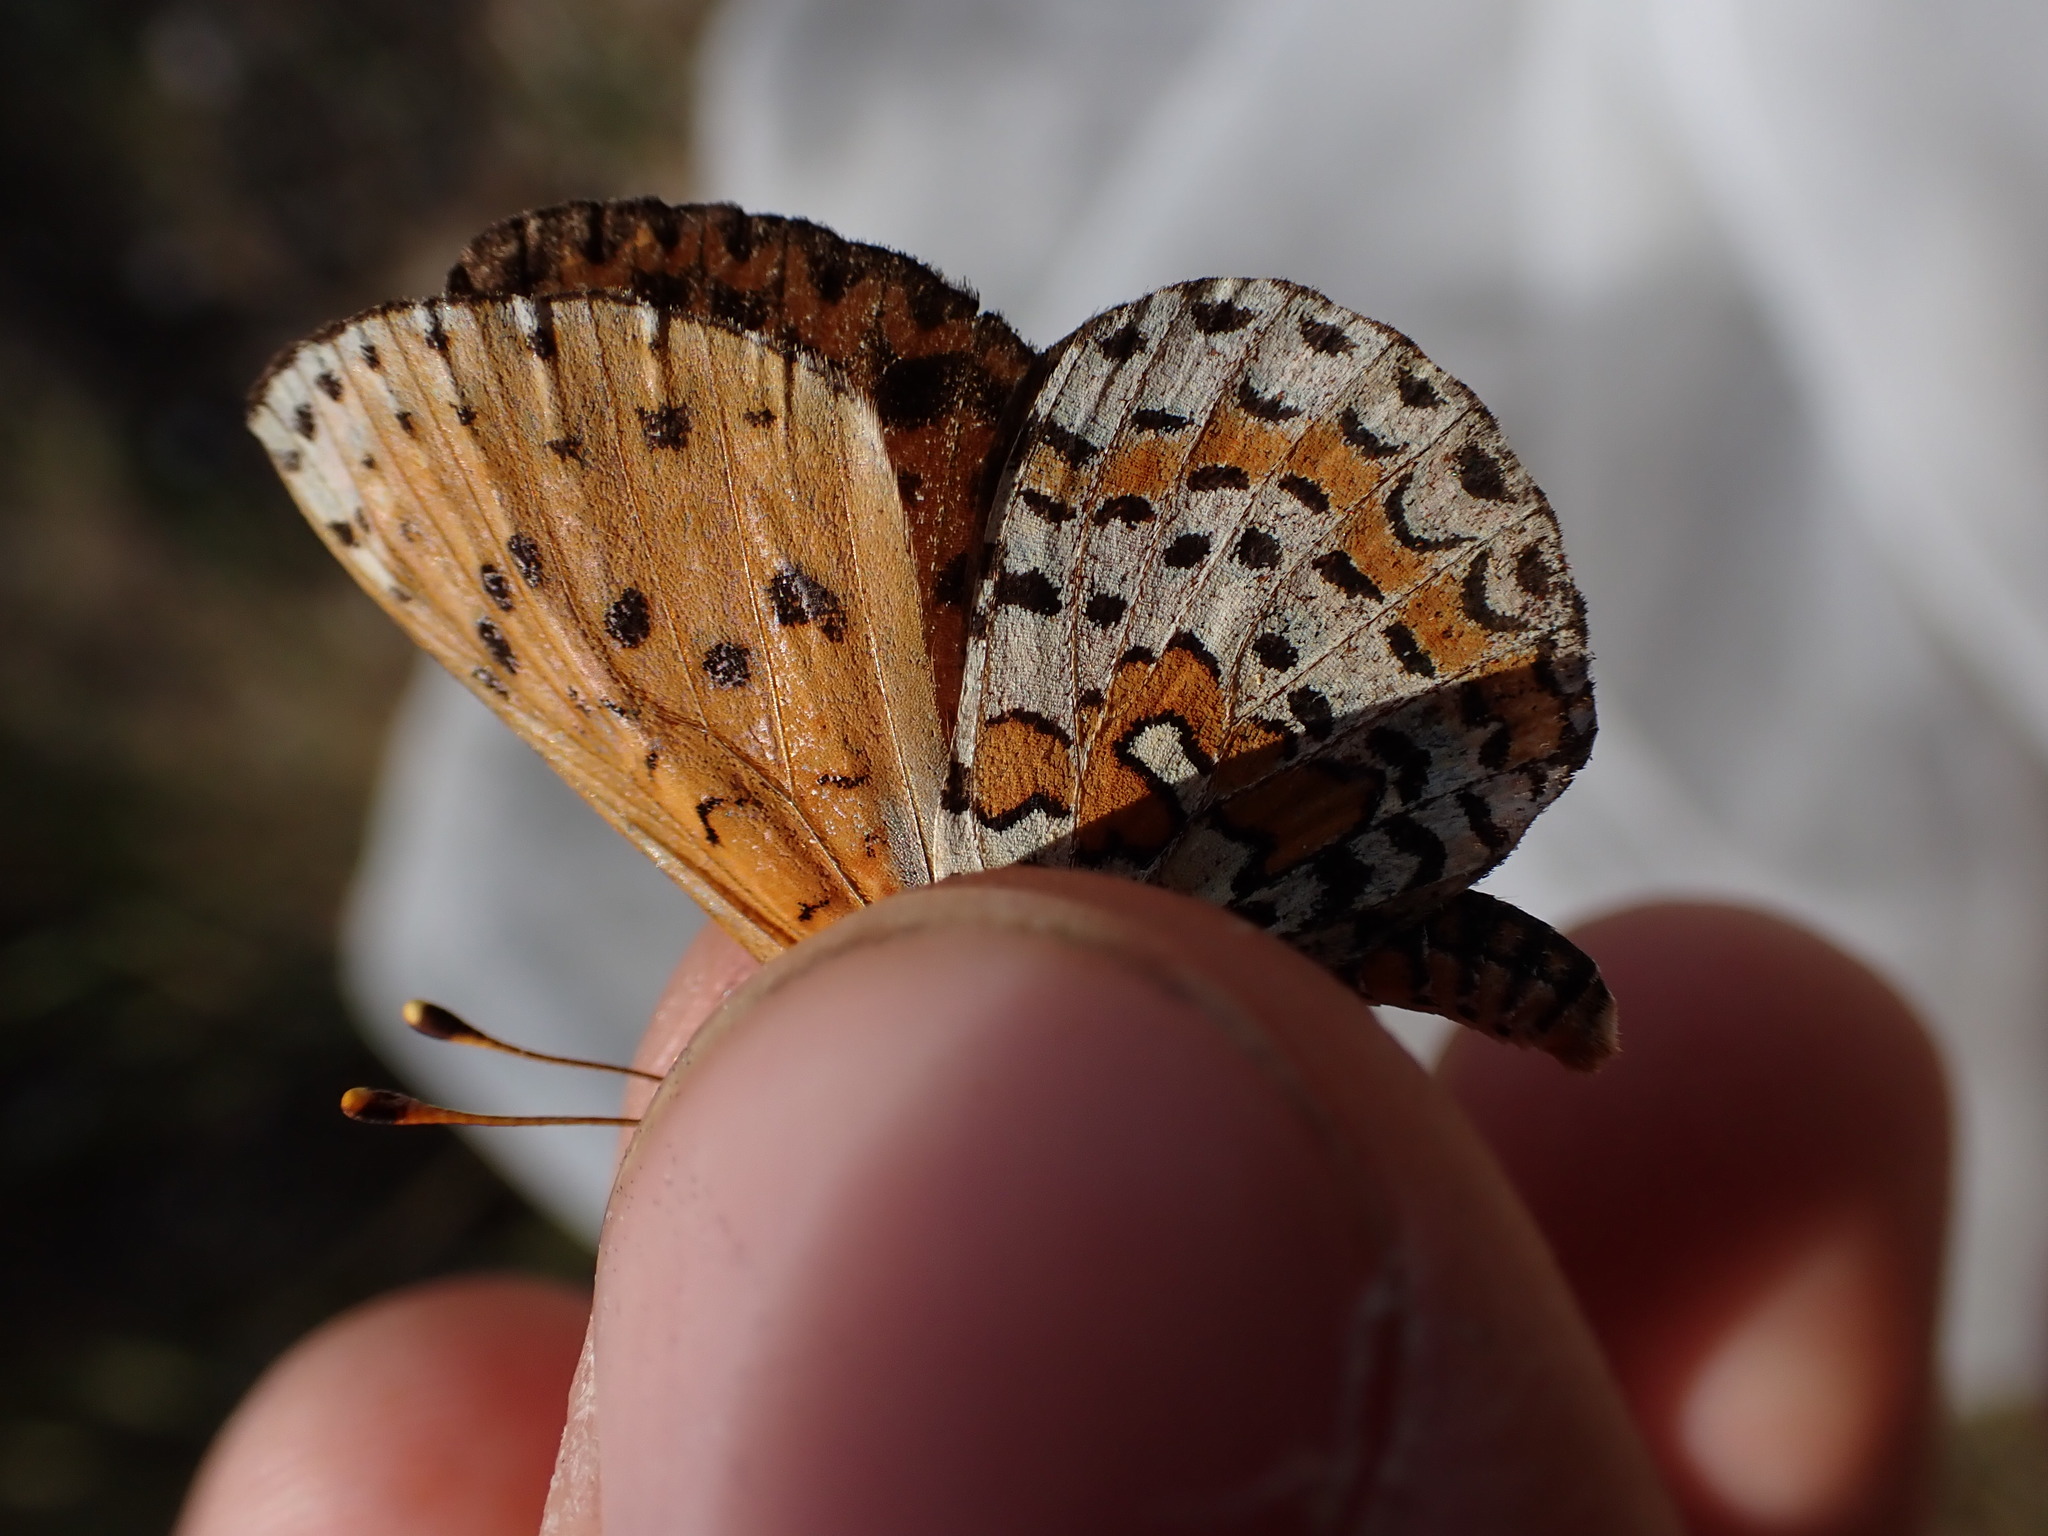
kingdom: Animalia
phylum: Arthropoda
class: Insecta
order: Lepidoptera
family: Nymphalidae
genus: Melitaea
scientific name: Melitaea didyma
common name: Spotted fritillary
